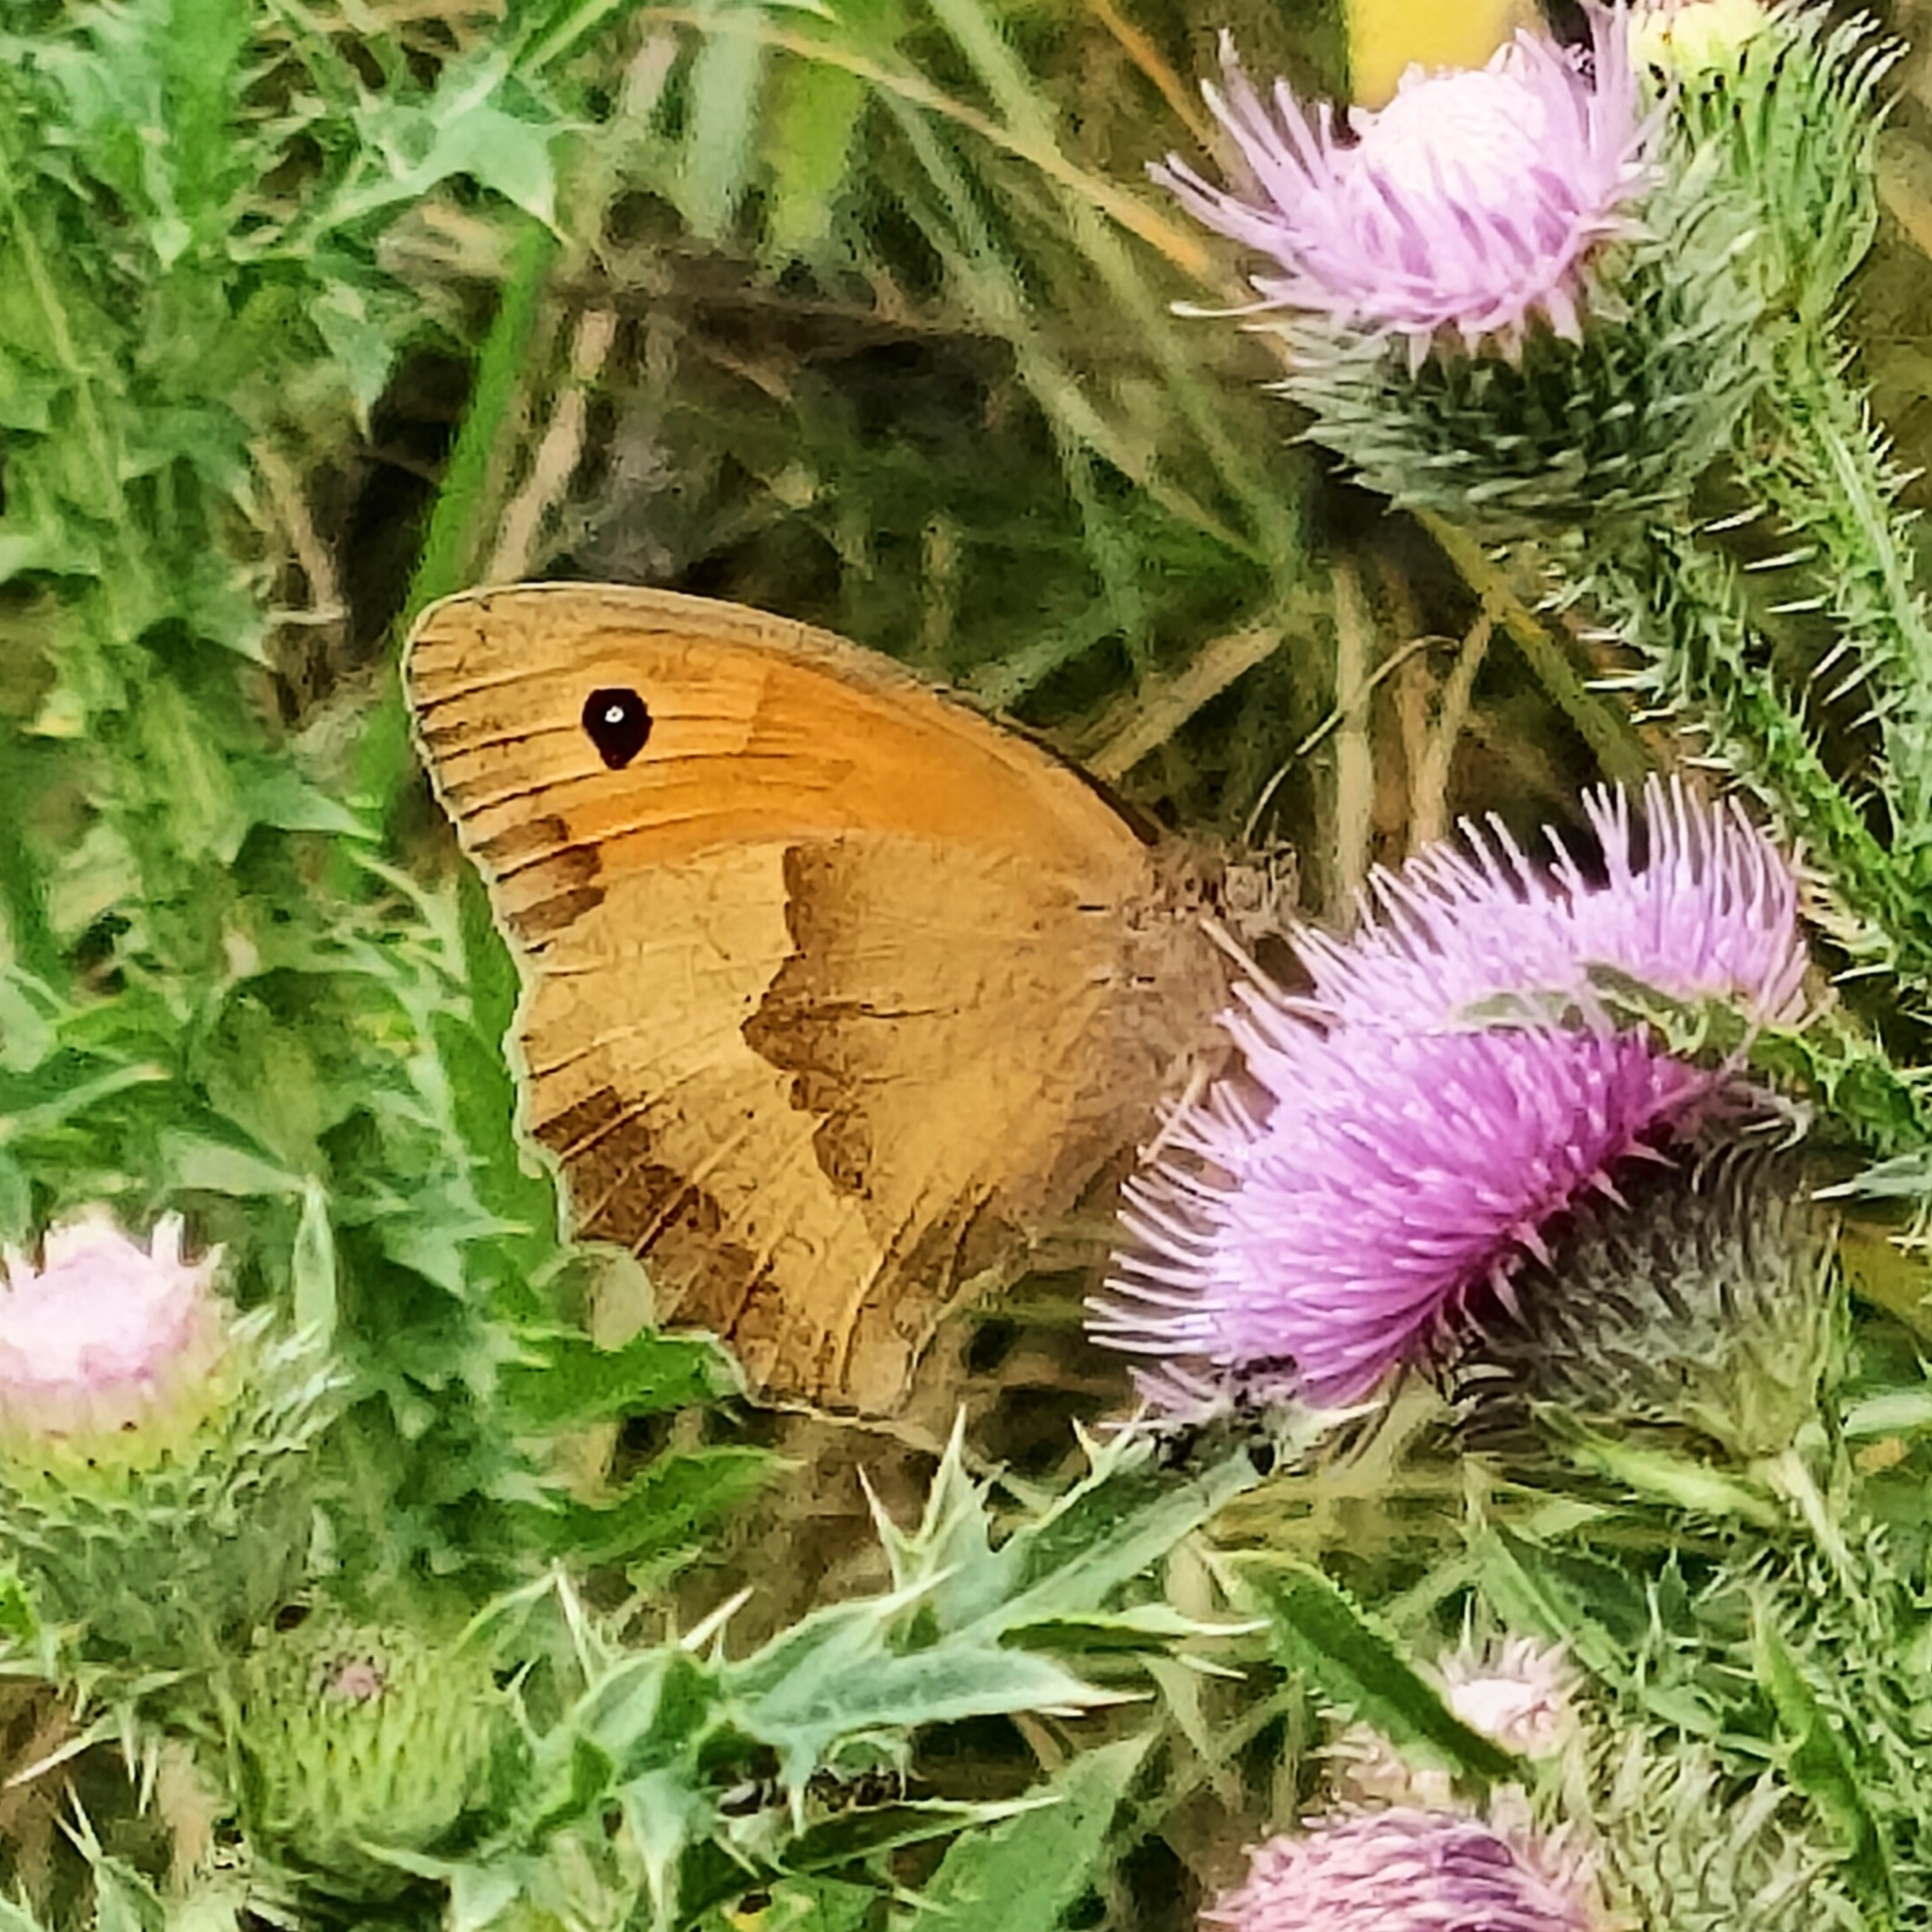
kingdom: Animalia
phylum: Arthropoda
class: Insecta
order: Lepidoptera
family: Nymphalidae
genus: Maniola
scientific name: Maniola jurtina
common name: Meadow brown
